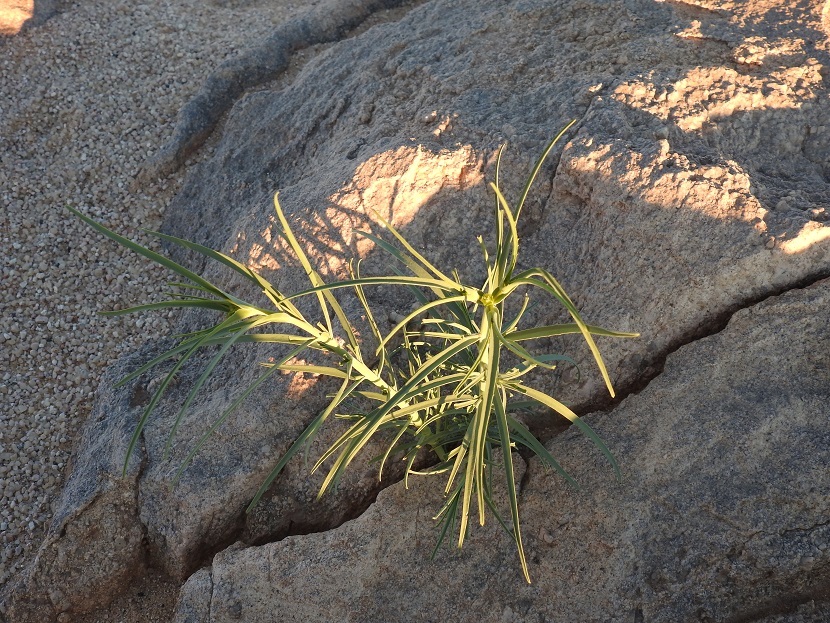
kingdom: Plantae
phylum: Tracheophyta
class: Magnoliopsida
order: Malpighiales
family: Euphorbiaceae
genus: Euphorbia
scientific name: Euphorbia calyptrata
